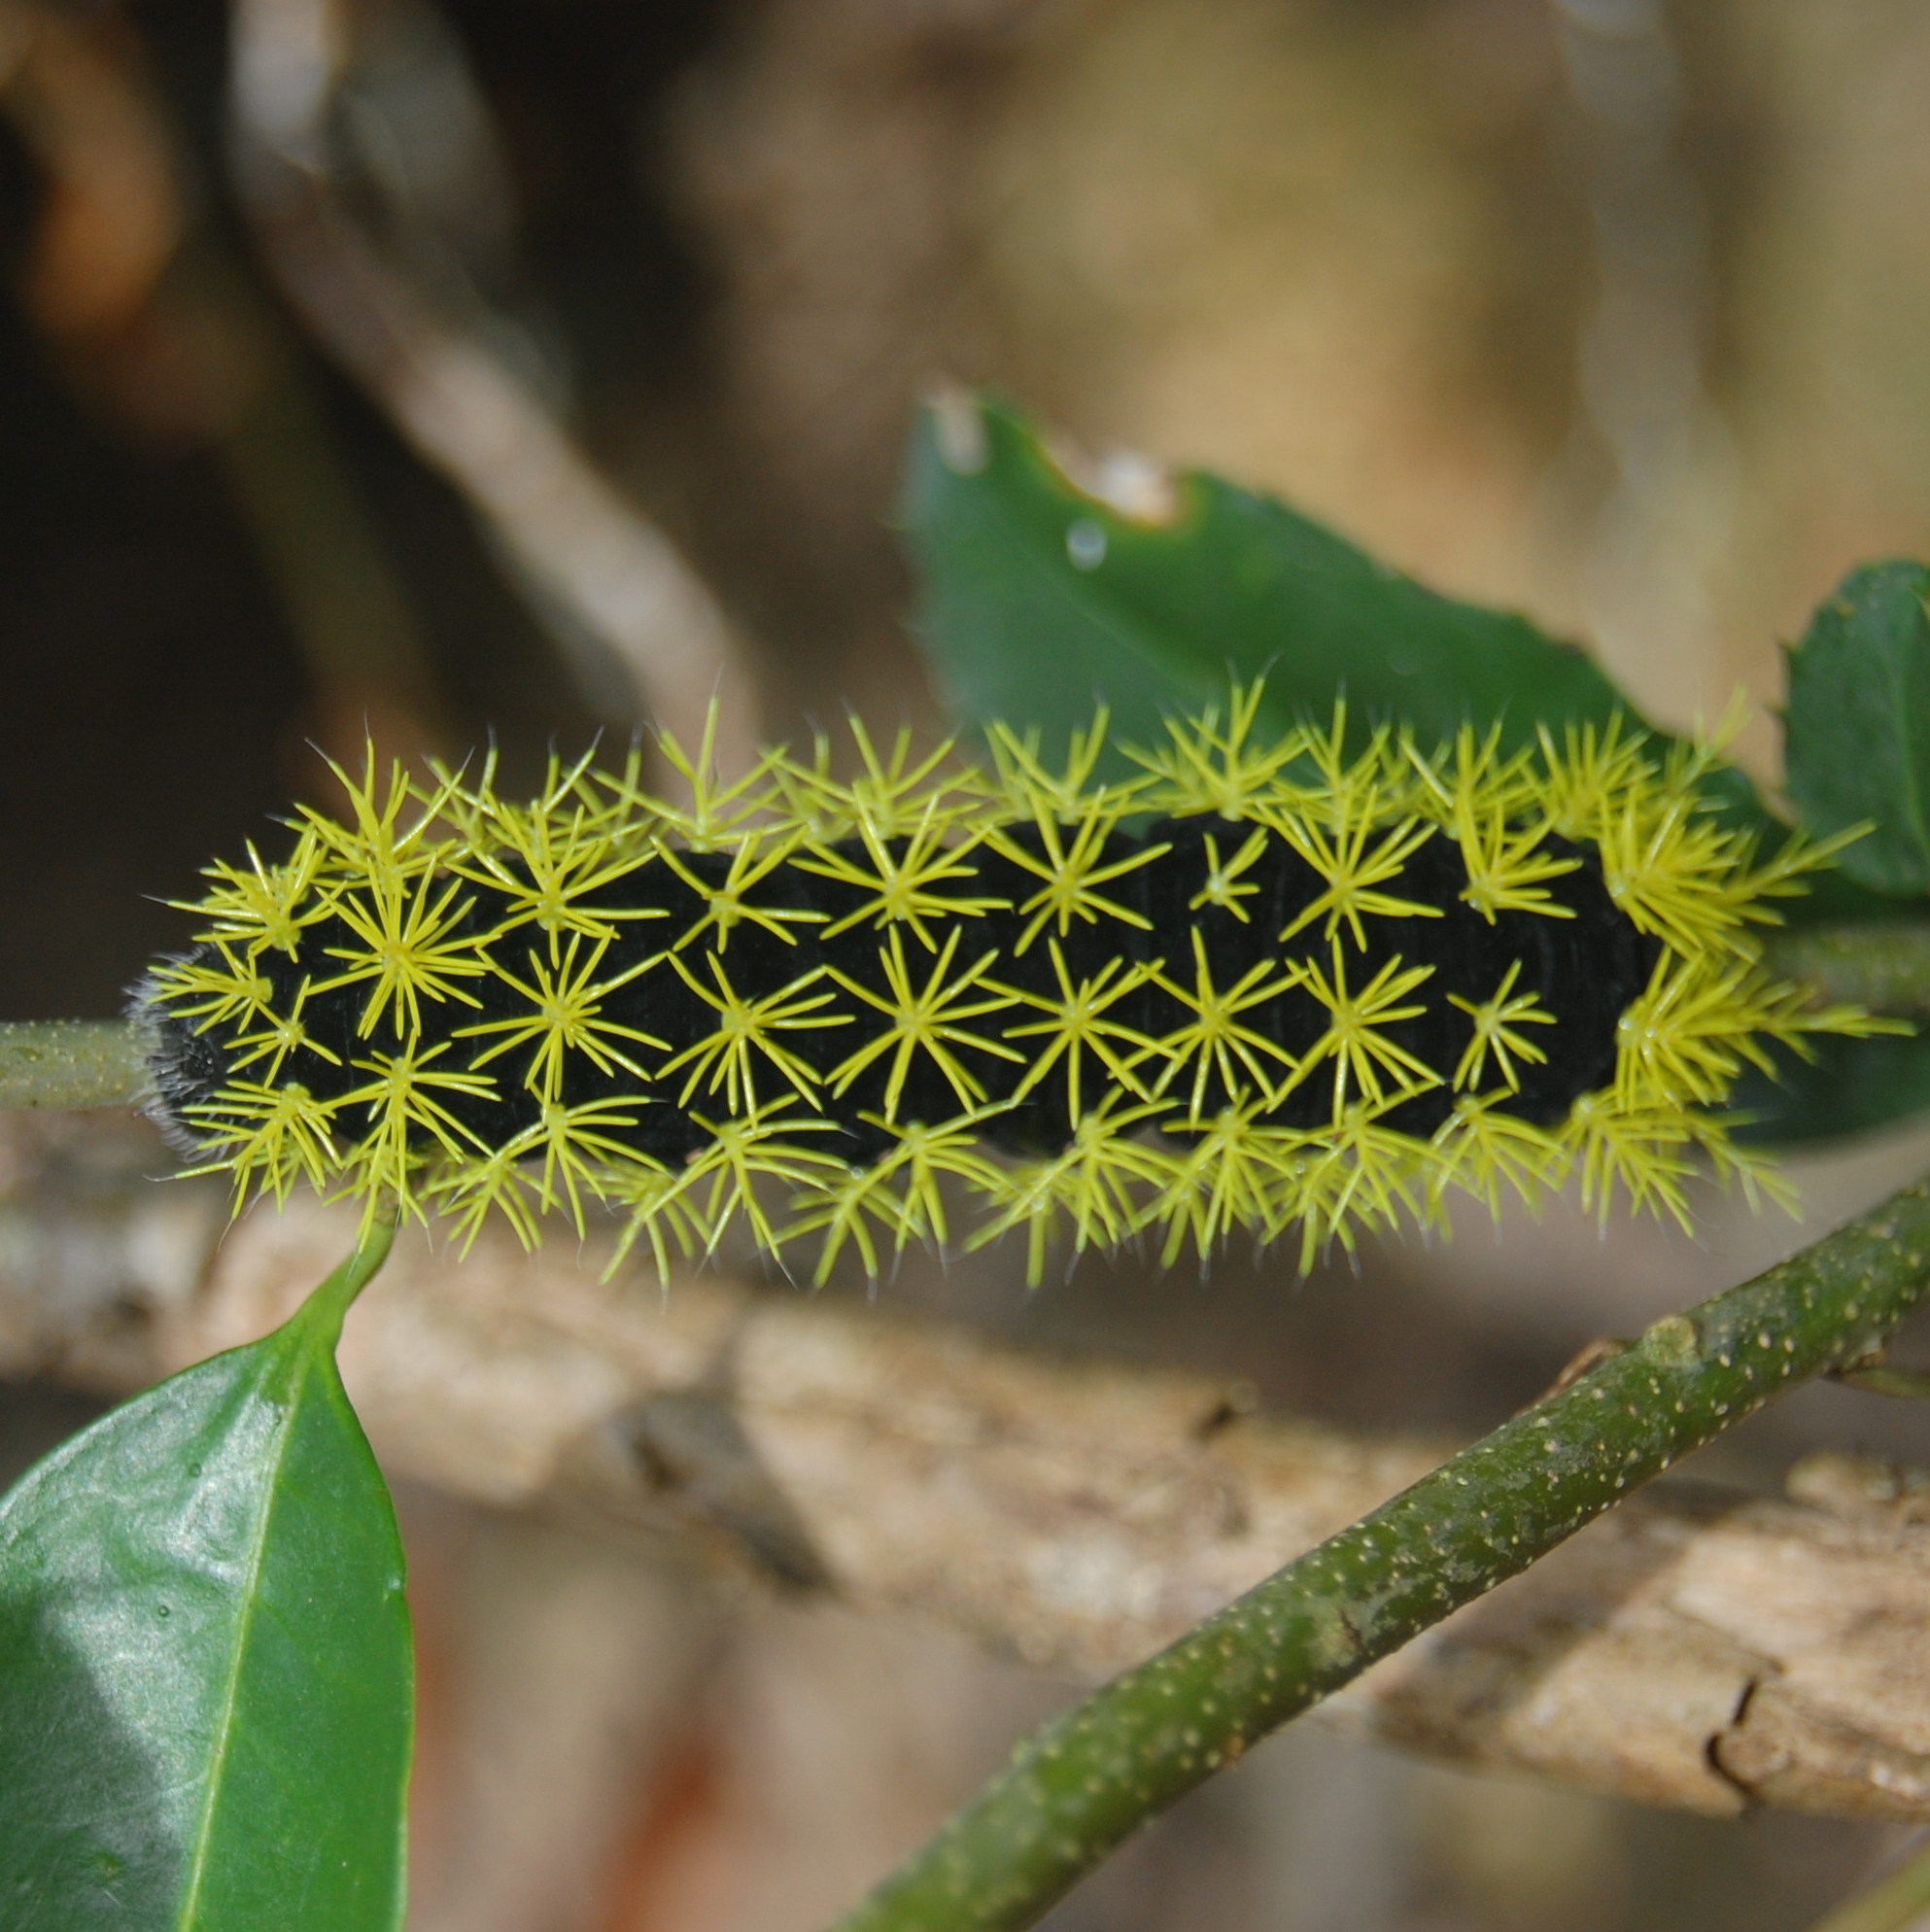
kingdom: Animalia
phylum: Arthropoda
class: Insecta
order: Lepidoptera
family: Saturniidae
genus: Leucanella
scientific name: Leucanella viridescens
